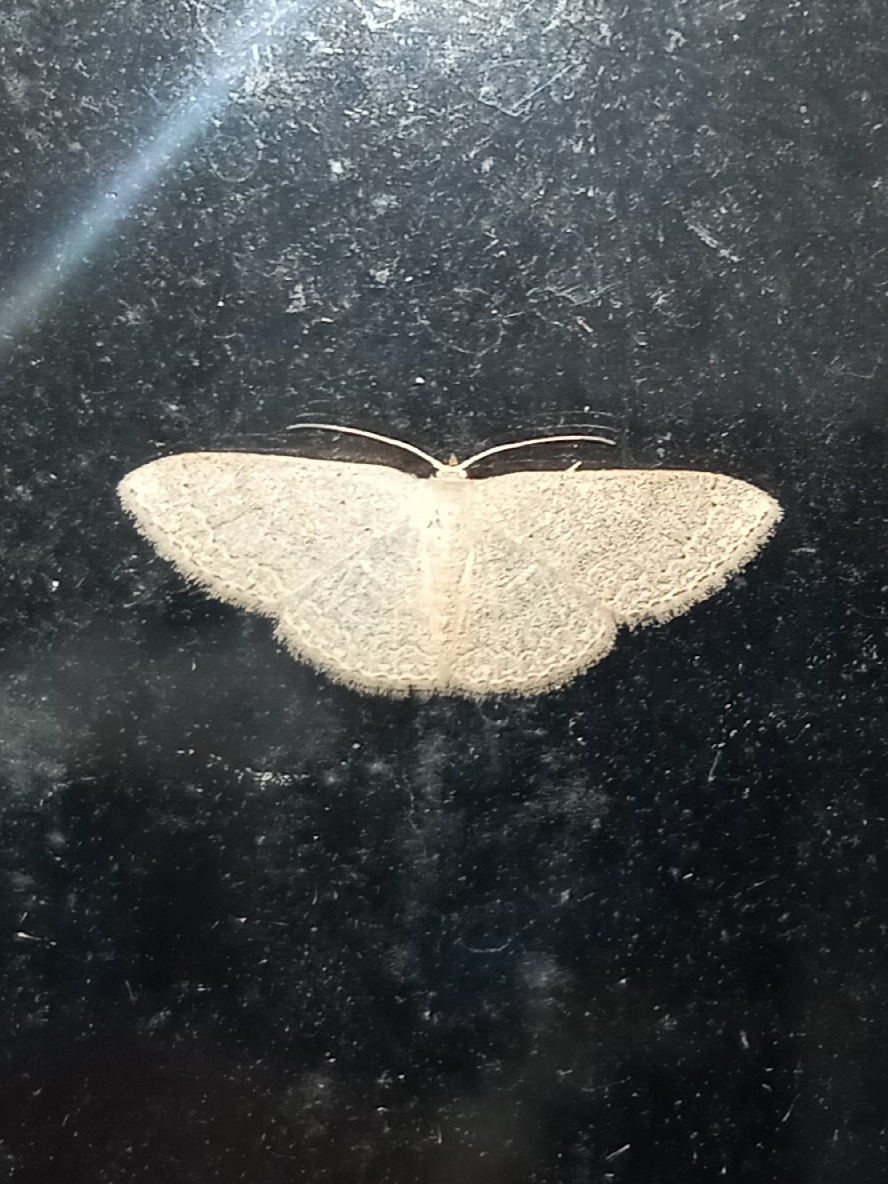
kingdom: Animalia
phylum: Arthropoda
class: Insecta
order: Lepidoptera
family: Geometridae
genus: Pleuroprucha
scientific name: Pleuroprucha insulsaria
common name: Common tan wave
